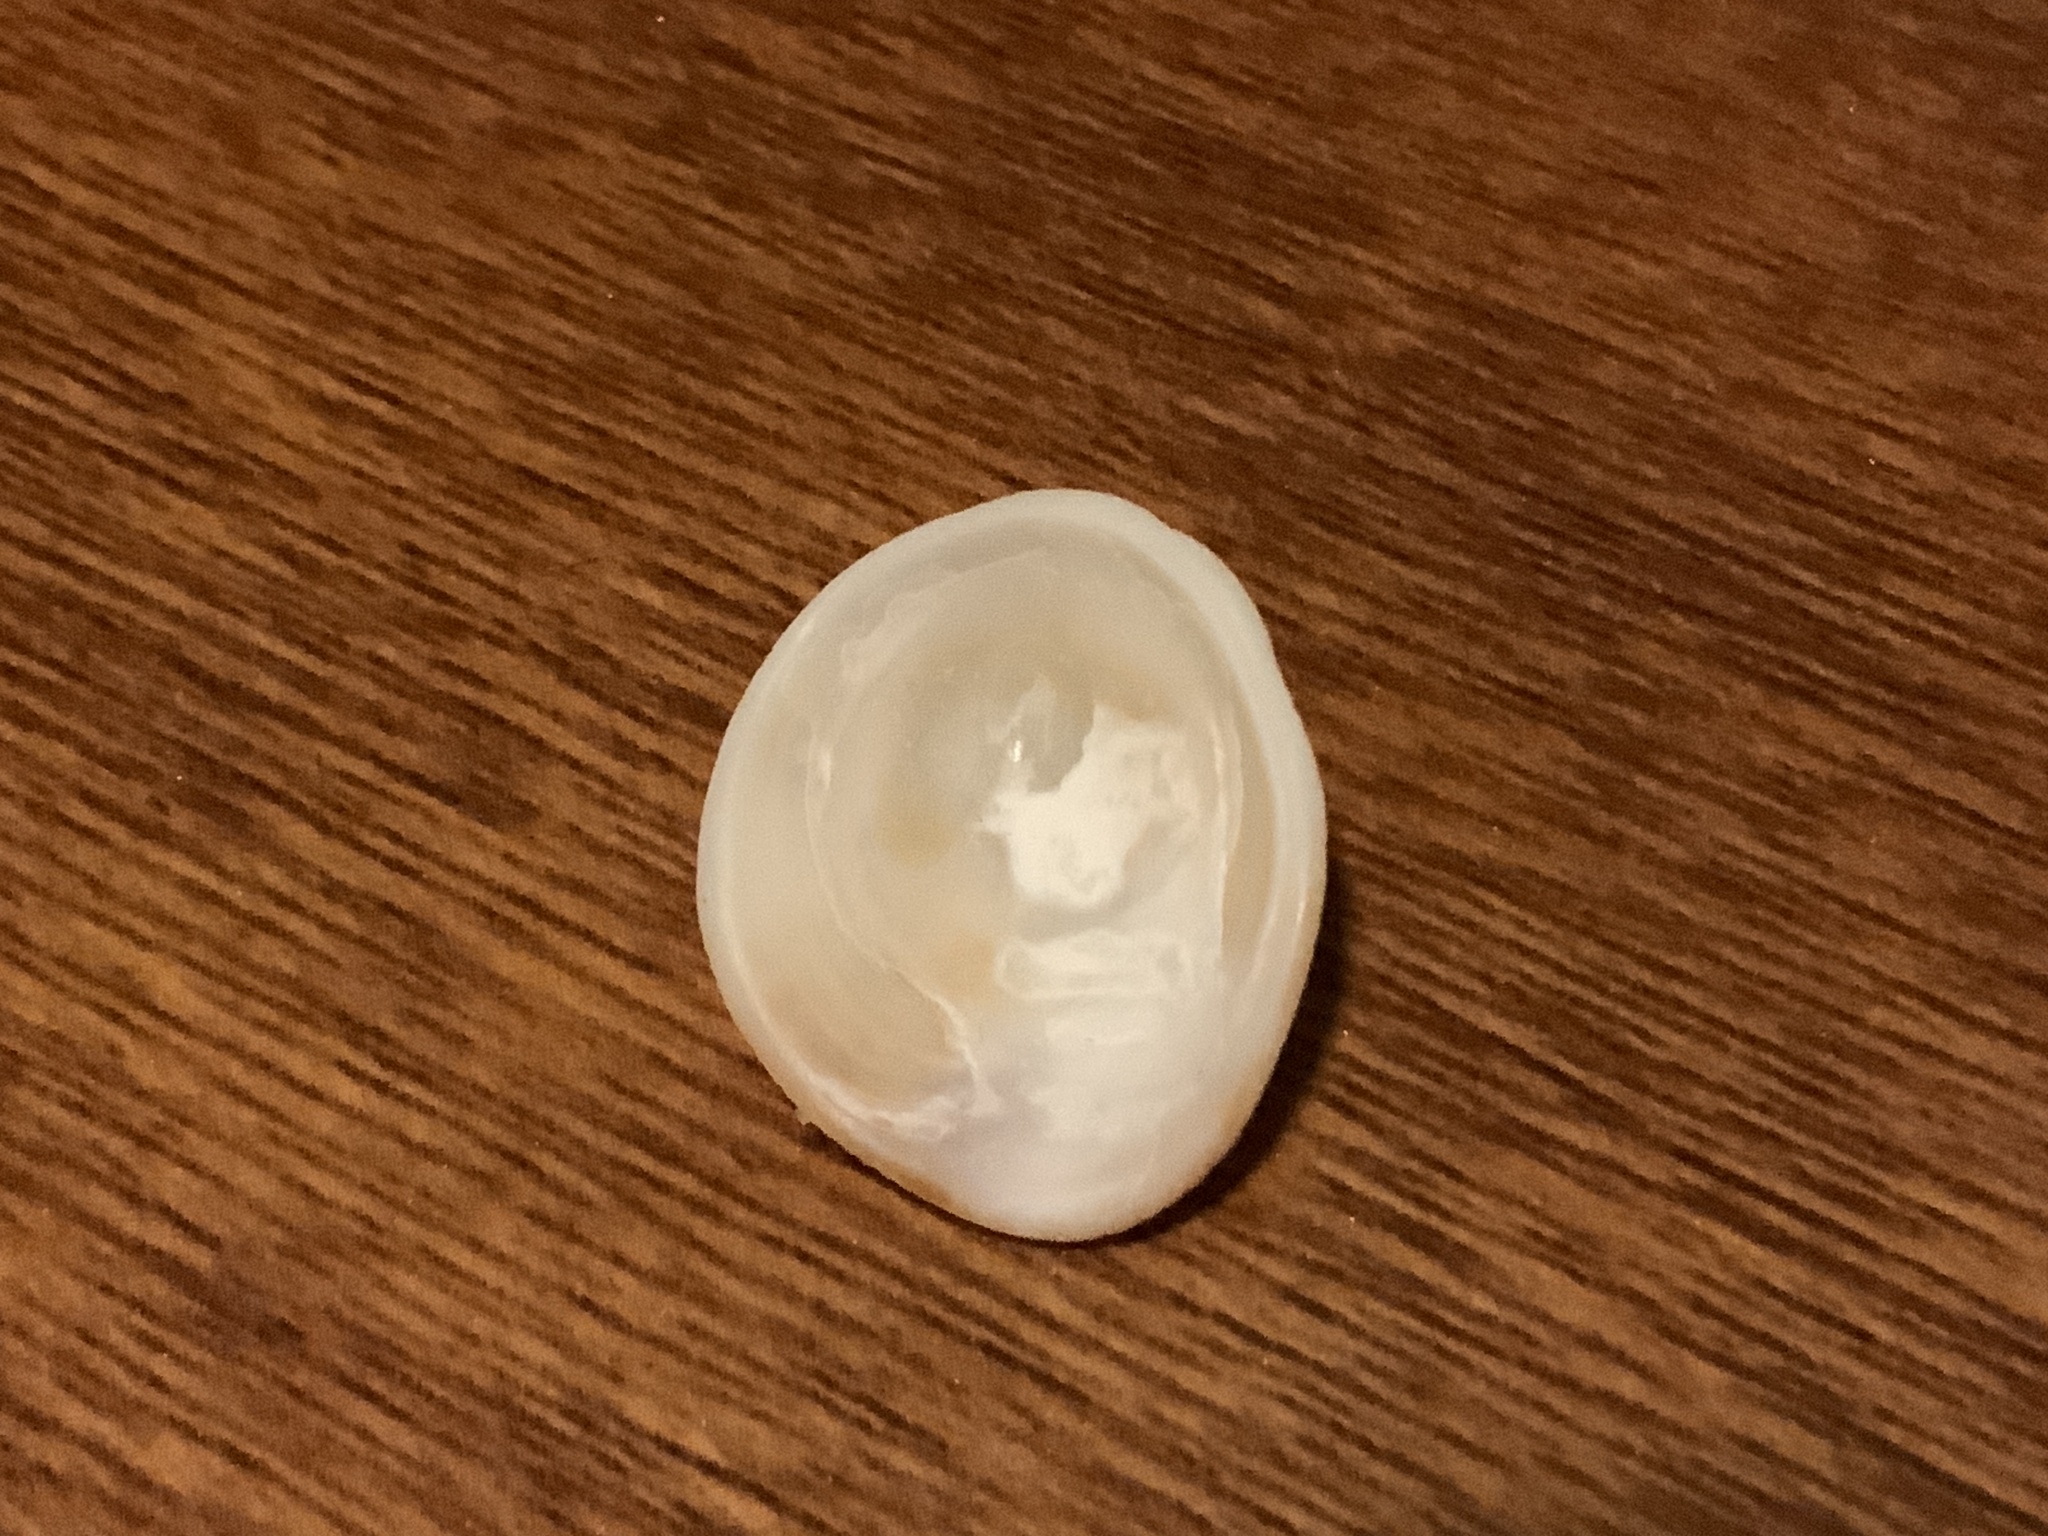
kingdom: Animalia
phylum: Mollusca
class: Gastropoda
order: Littorinimorpha
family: Hipponicidae
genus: Pilosabia
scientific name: Pilosabia trigona
